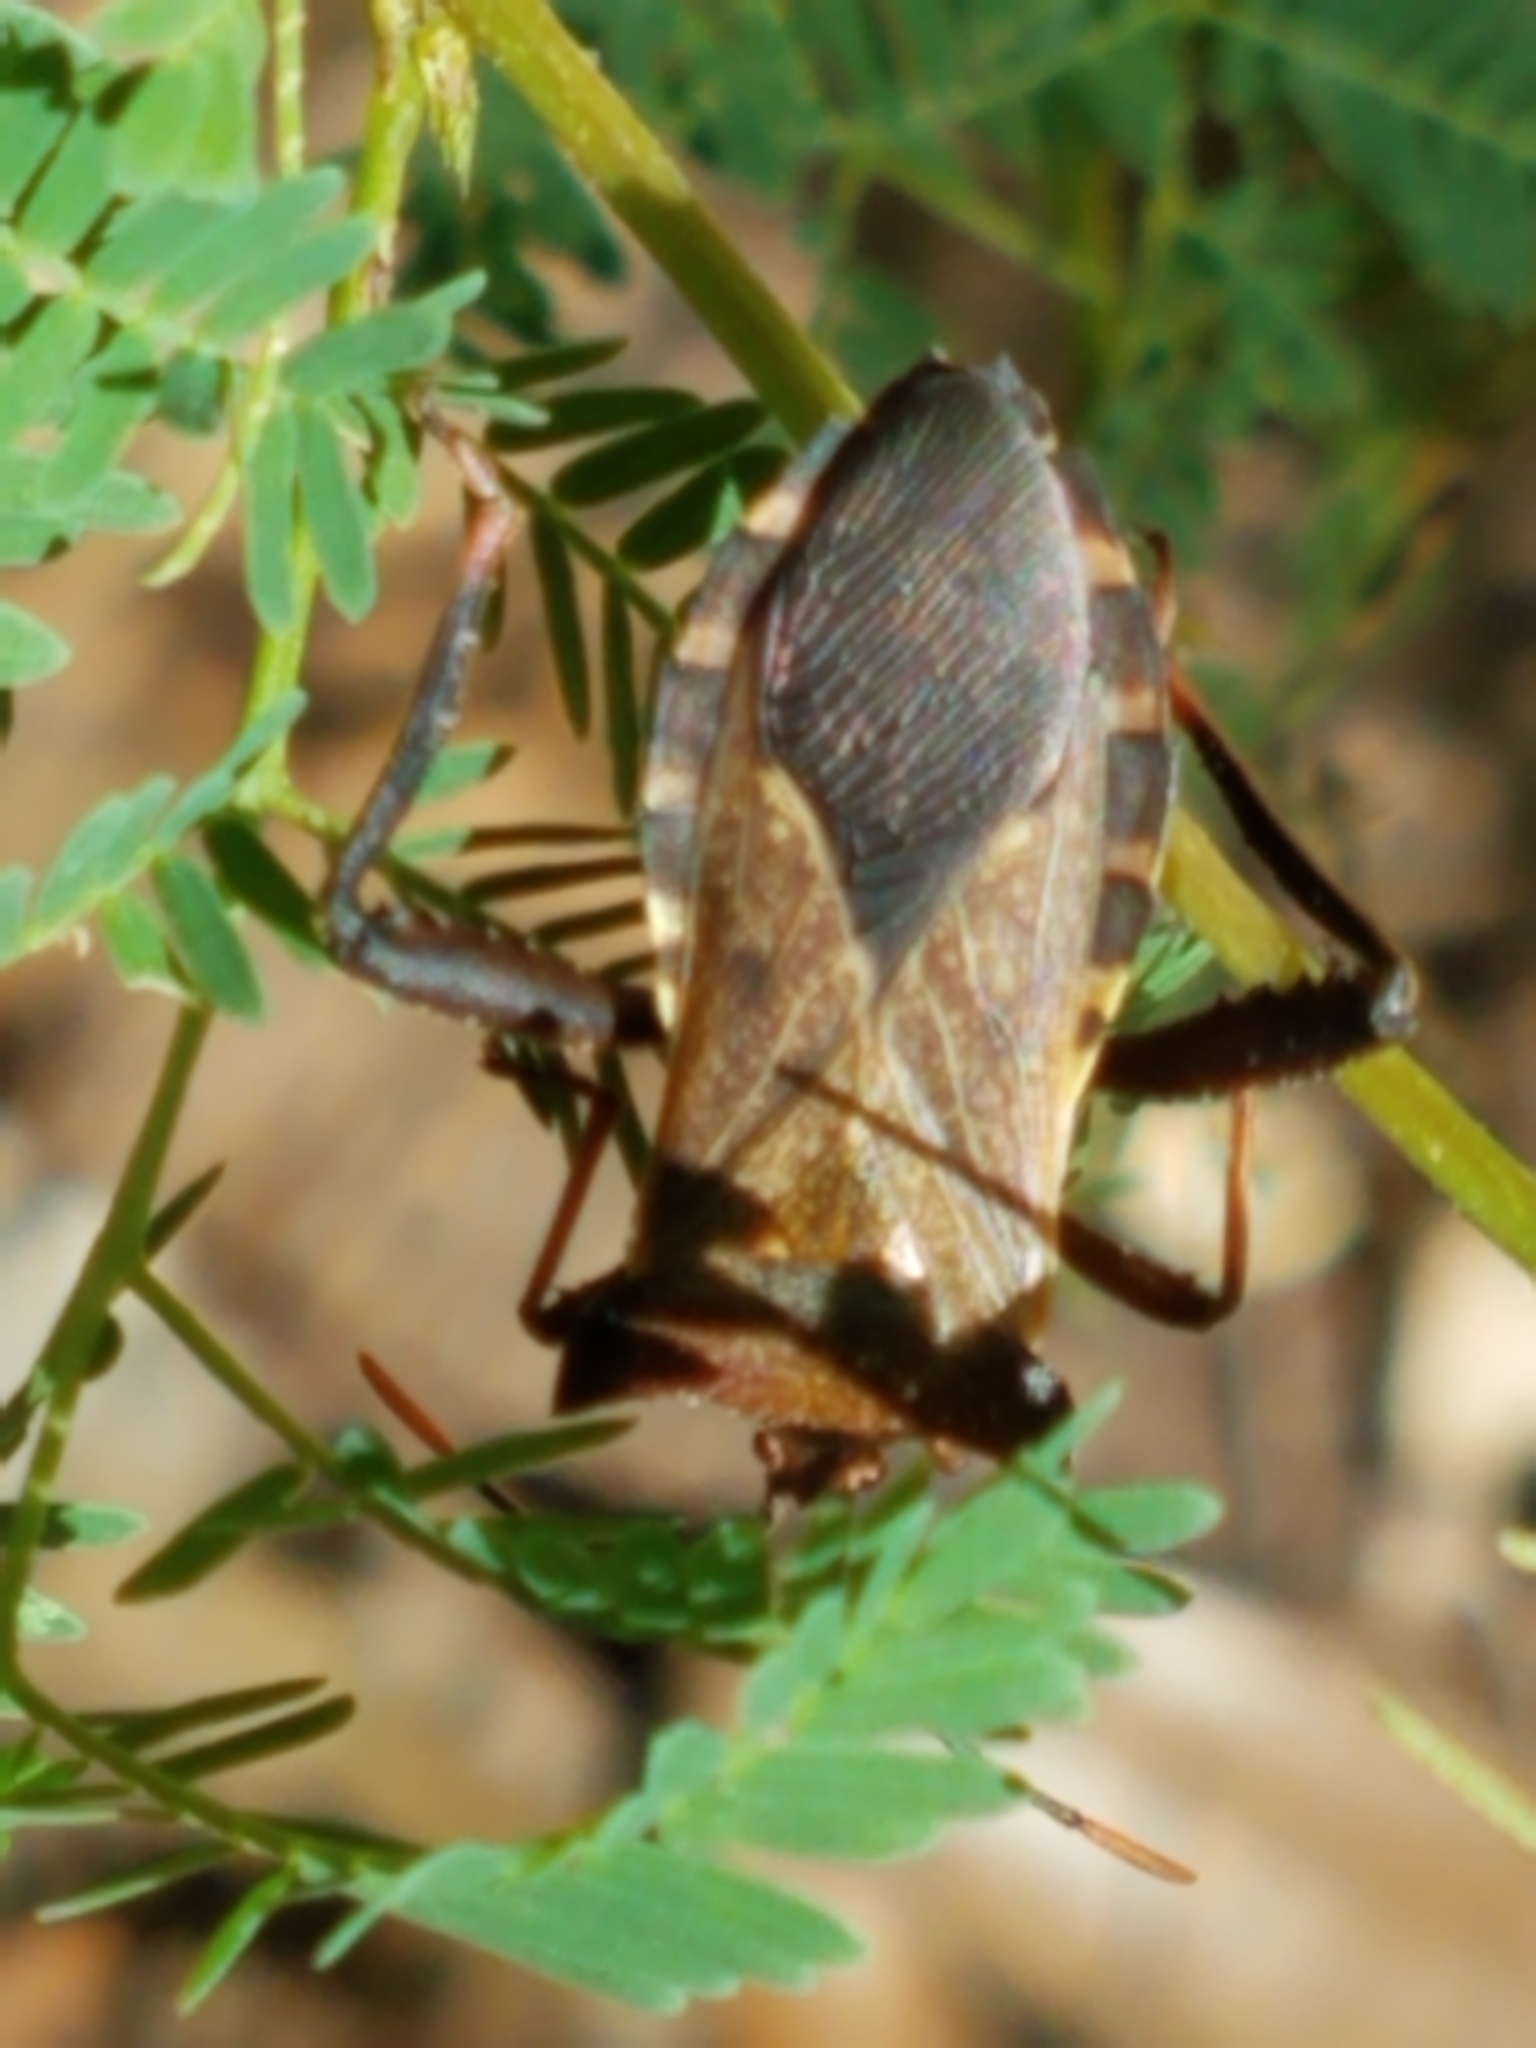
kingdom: Animalia
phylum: Arthropoda
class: Insecta
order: Hemiptera
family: Coreidae
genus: Mozena
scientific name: Mozena lunata
